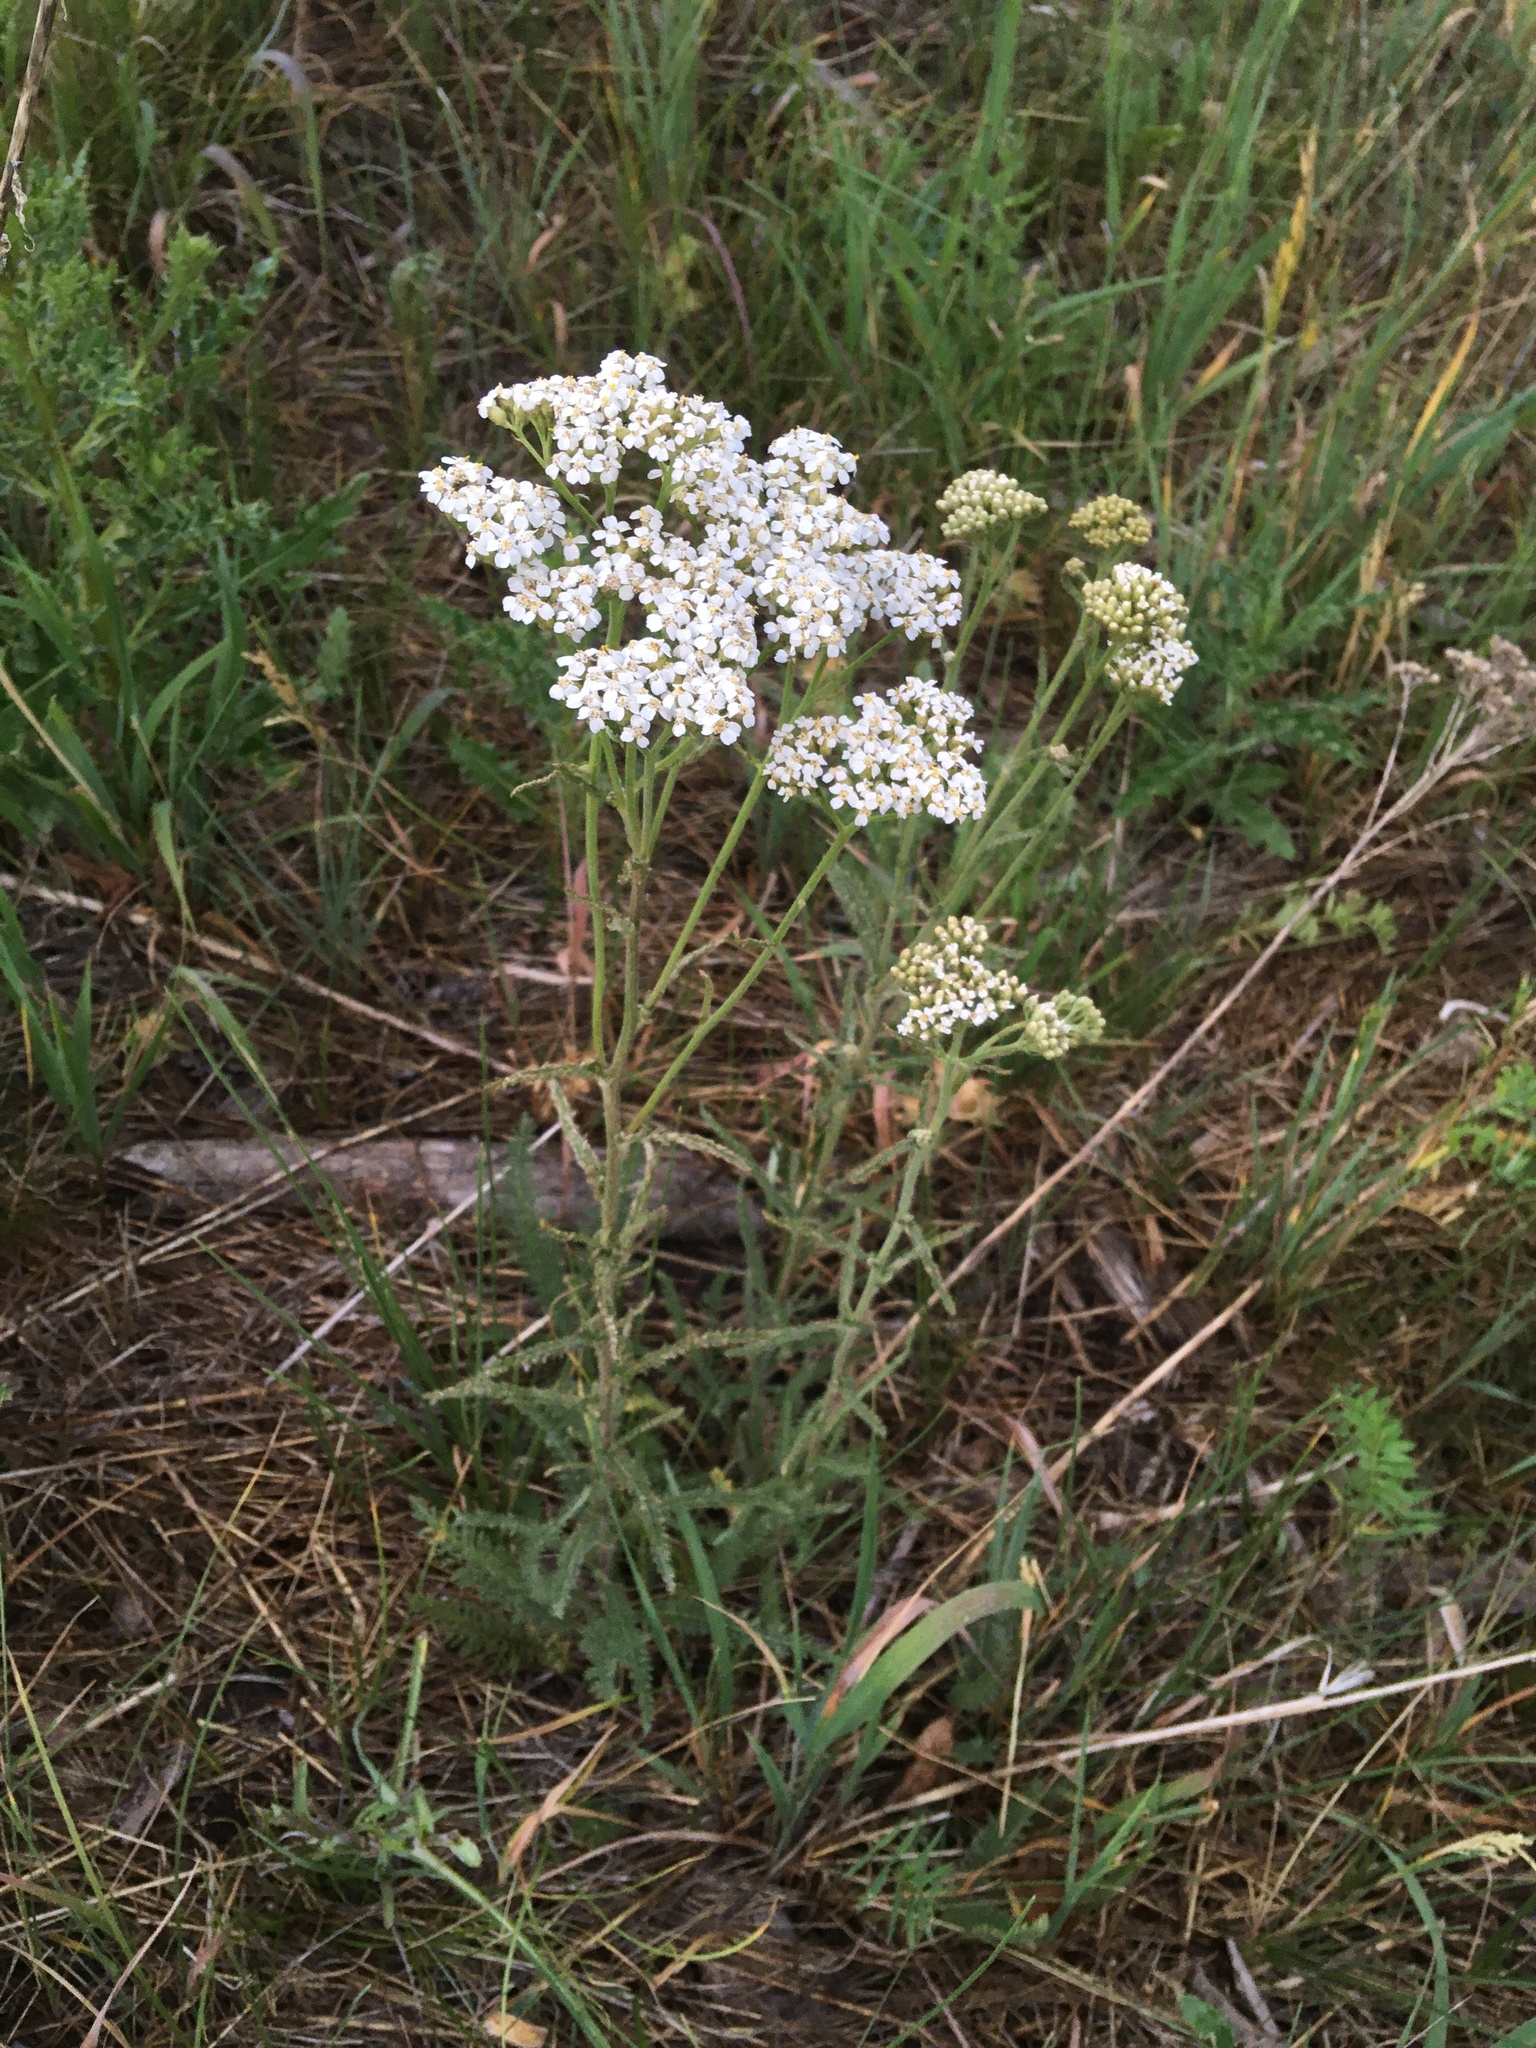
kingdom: Plantae
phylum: Tracheophyta
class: Magnoliopsida
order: Asterales
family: Asteraceae
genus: Achillea
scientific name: Achillea millefolium
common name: Yarrow
